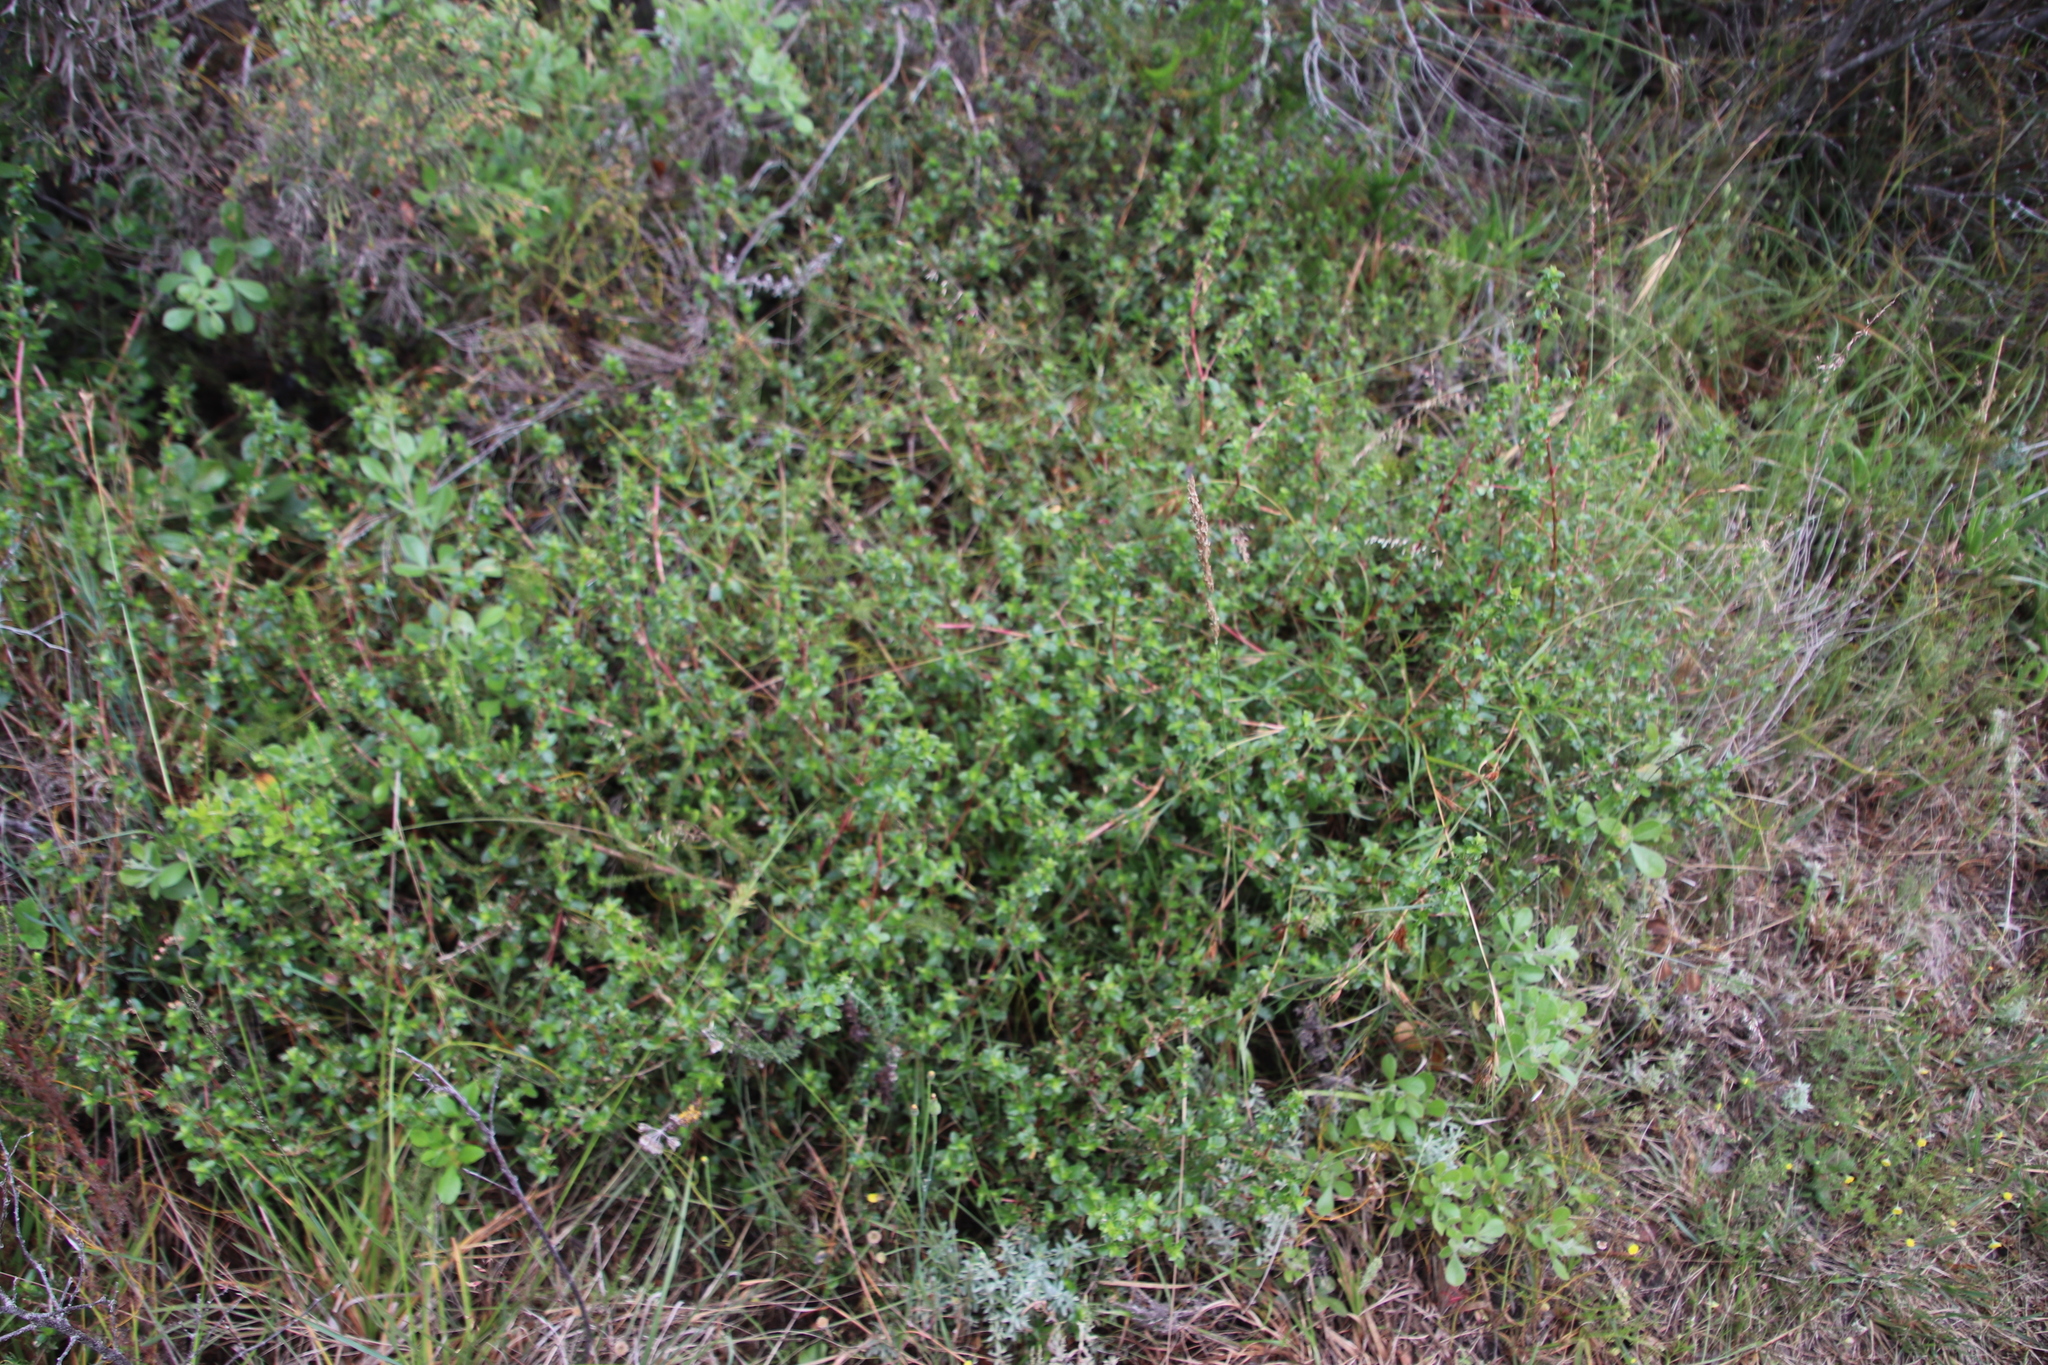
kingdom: Plantae
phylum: Tracheophyta
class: Magnoliopsida
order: Rosales
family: Rosaceae
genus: Cliffortia
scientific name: Cliffortia ferruginea
